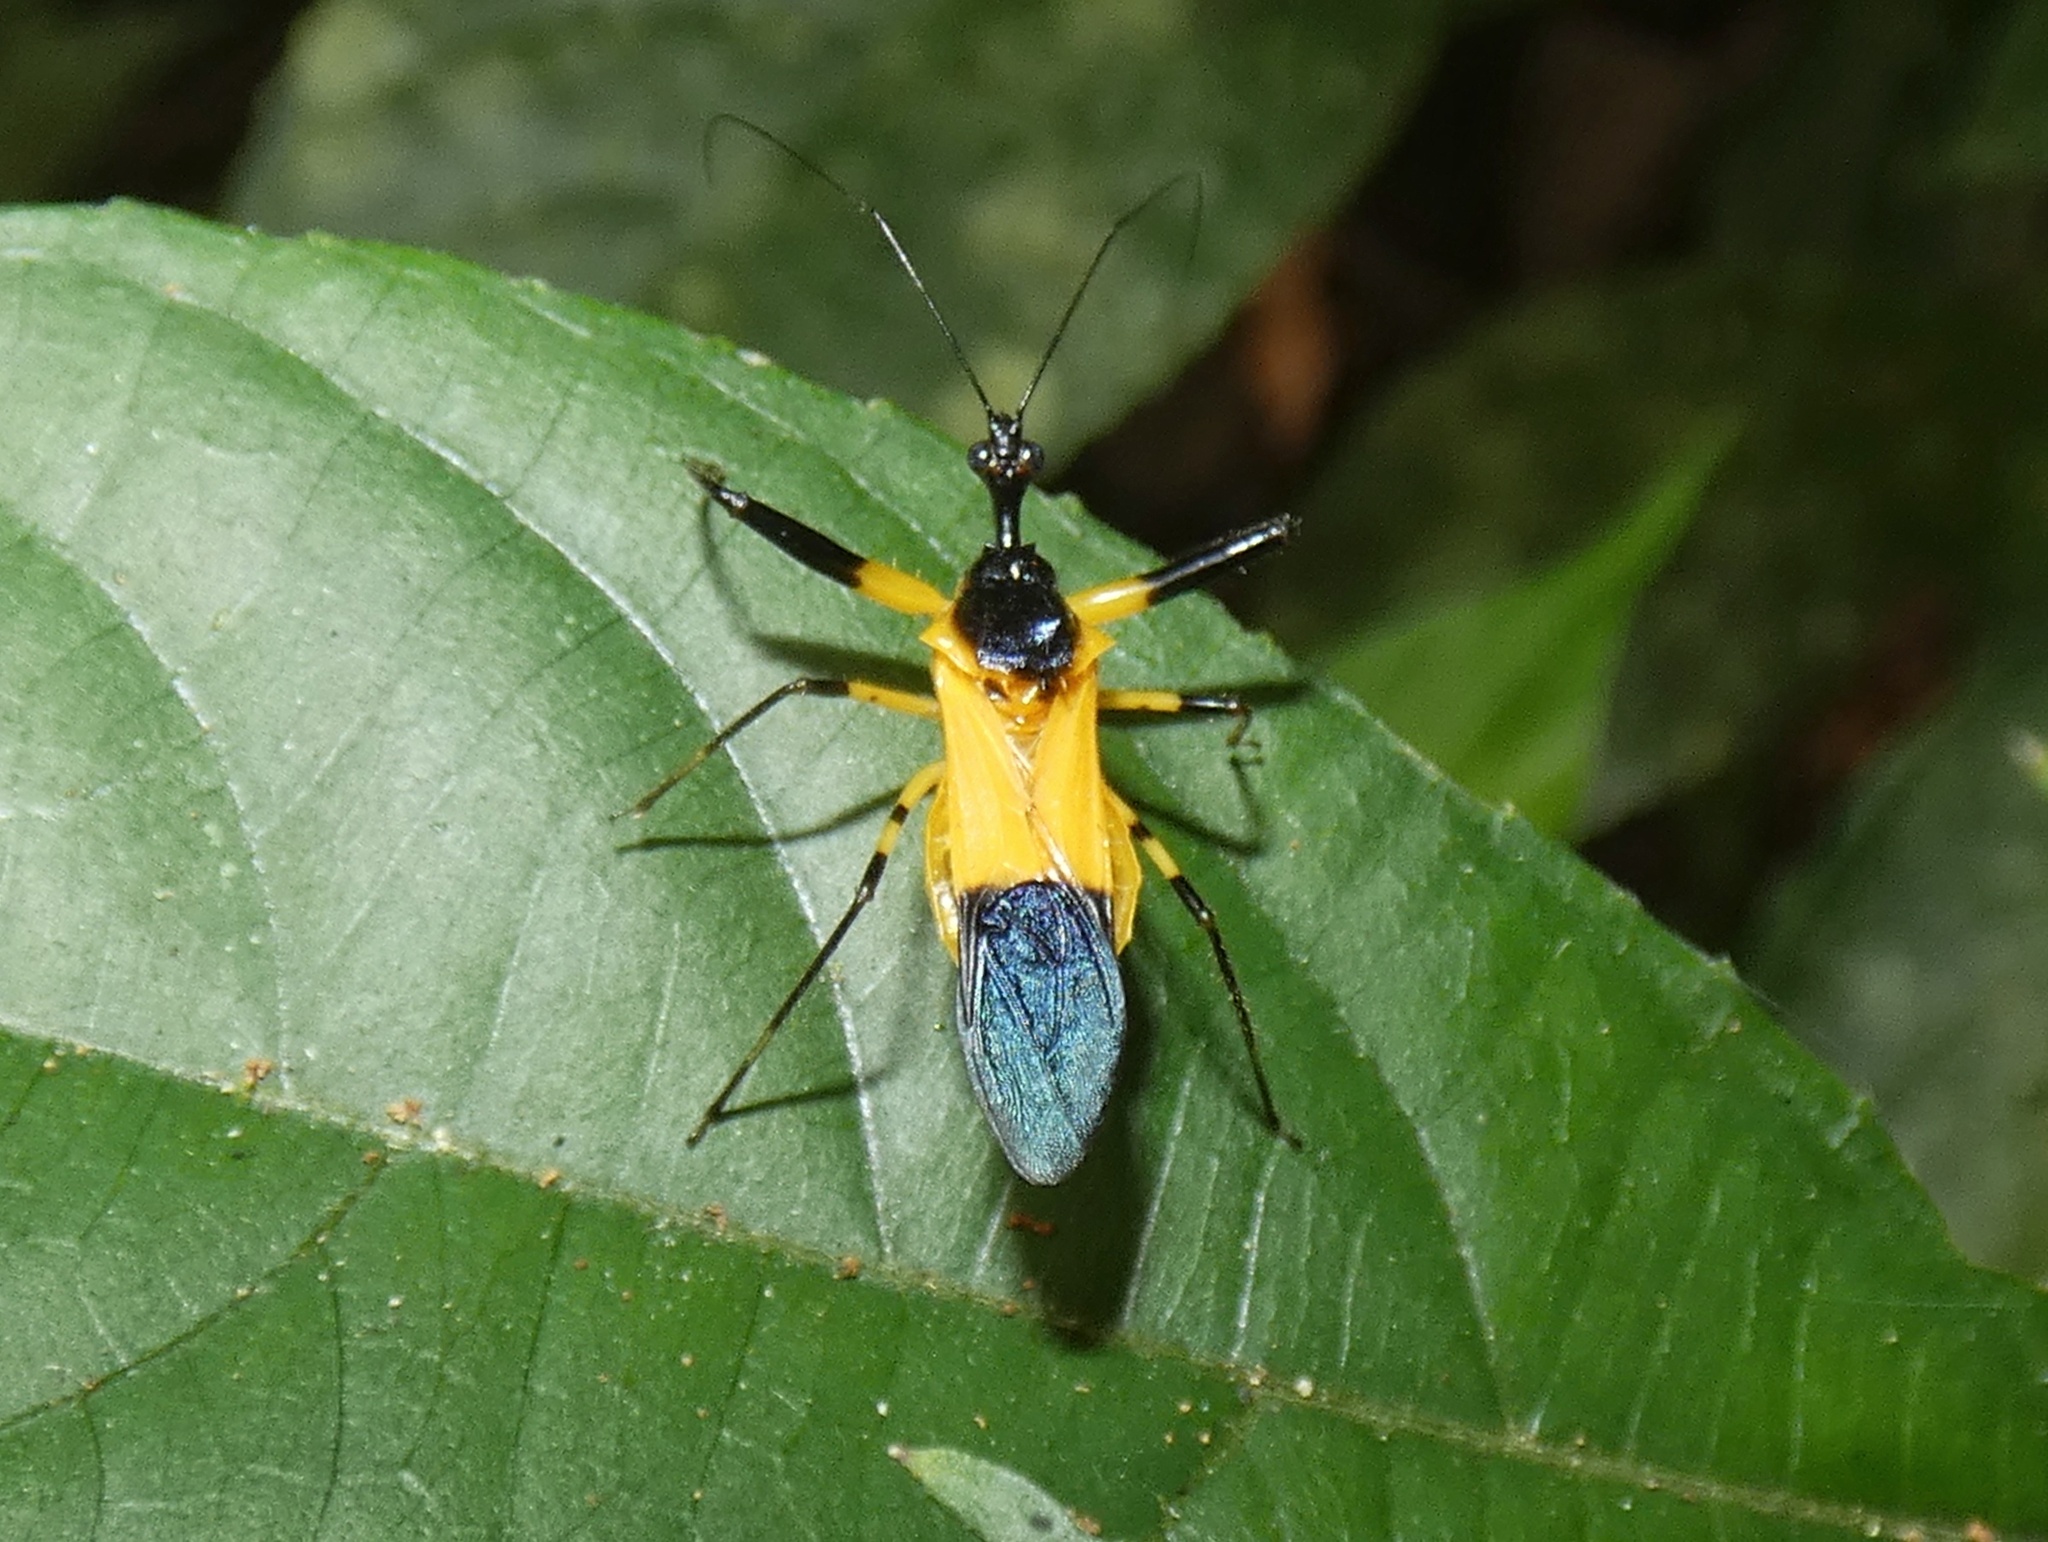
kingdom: Animalia
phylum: Arthropoda
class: Insecta
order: Hemiptera
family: Reduviidae
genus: Acanthischium
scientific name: Acanthischium
